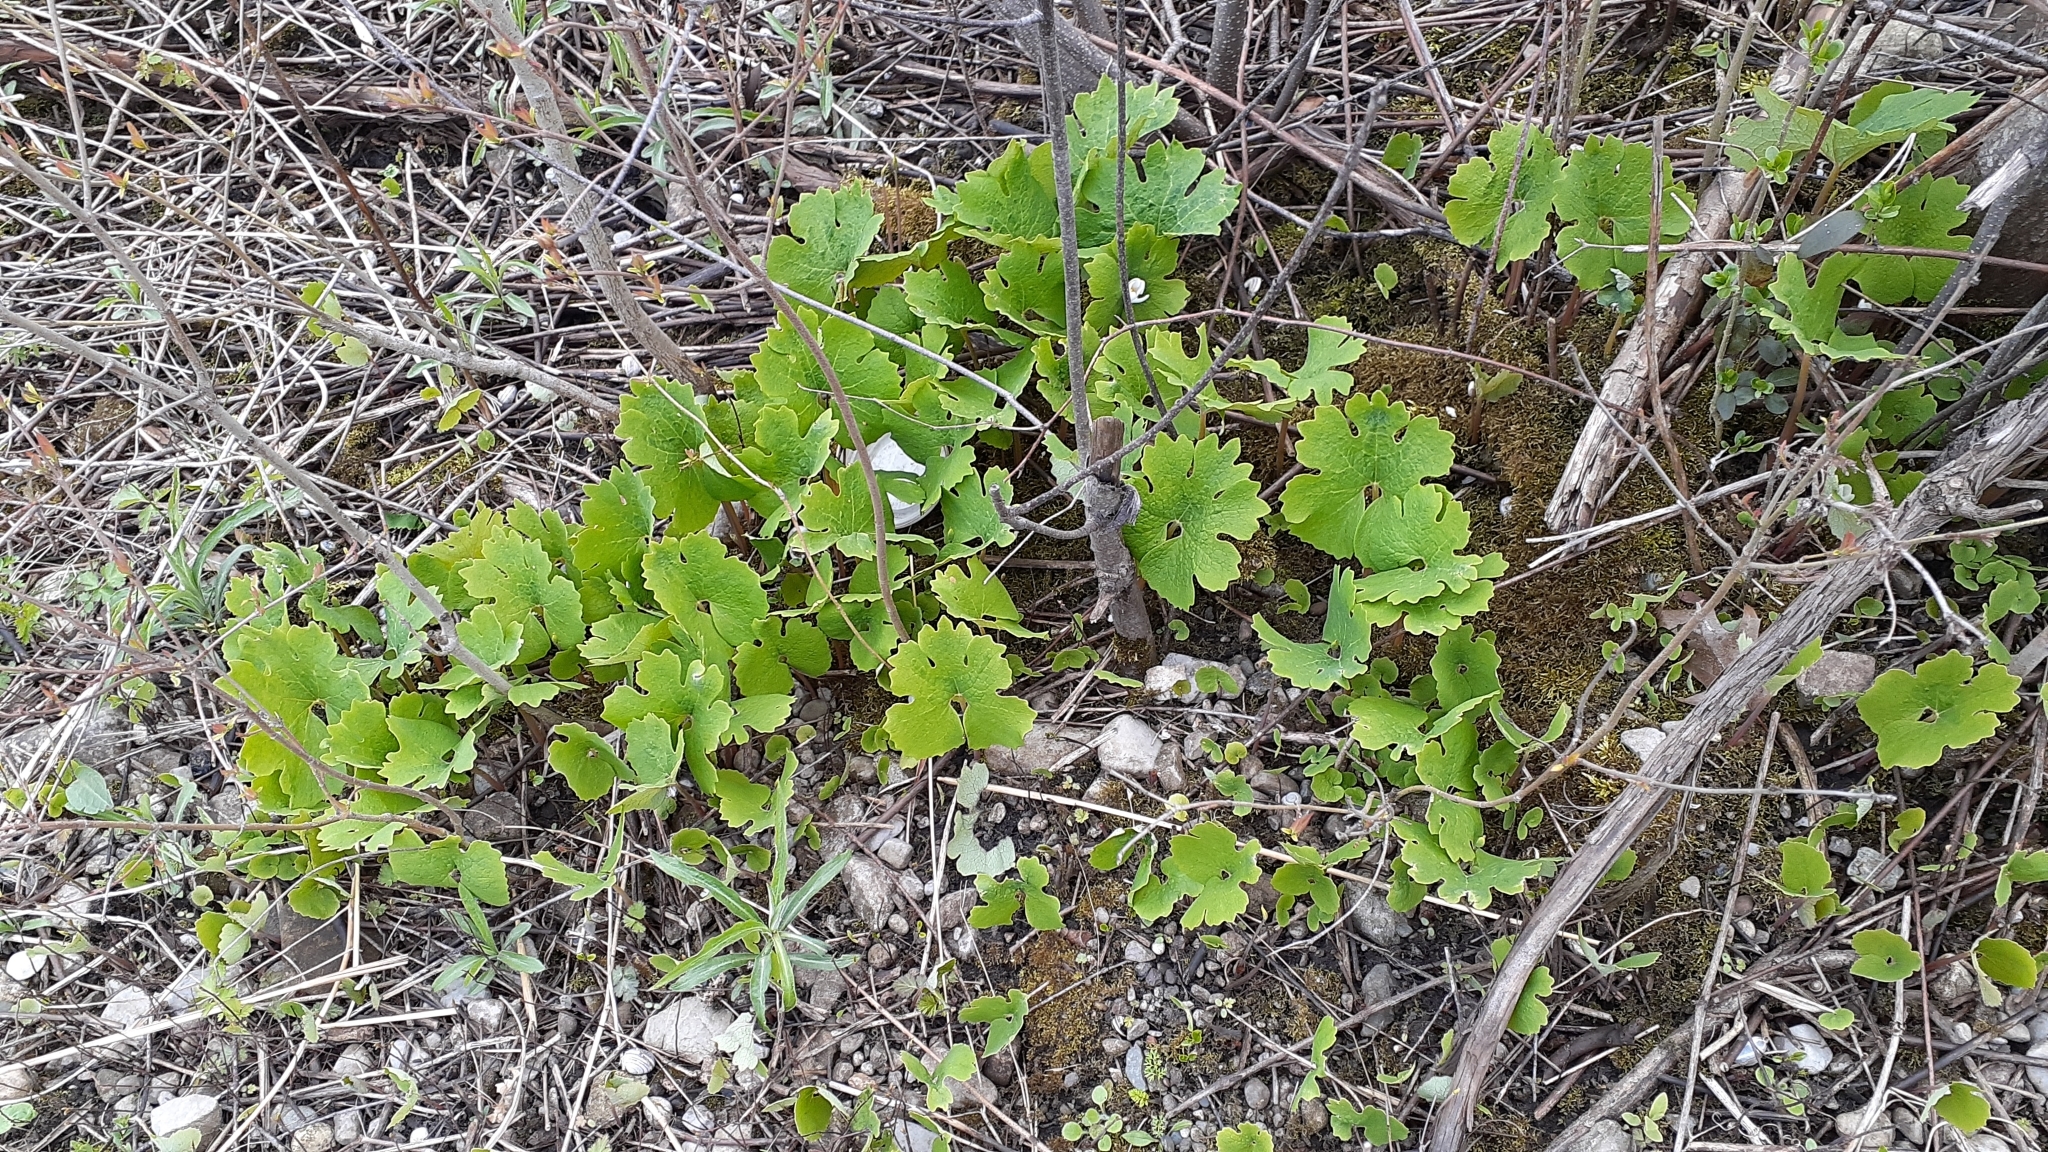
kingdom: Plantae
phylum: Tracheophyta
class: Magnoliopsida
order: Ranunculales
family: Papaveraceae
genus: Sanguinaria
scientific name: Sanguinaria canadensis
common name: Bloodroot
